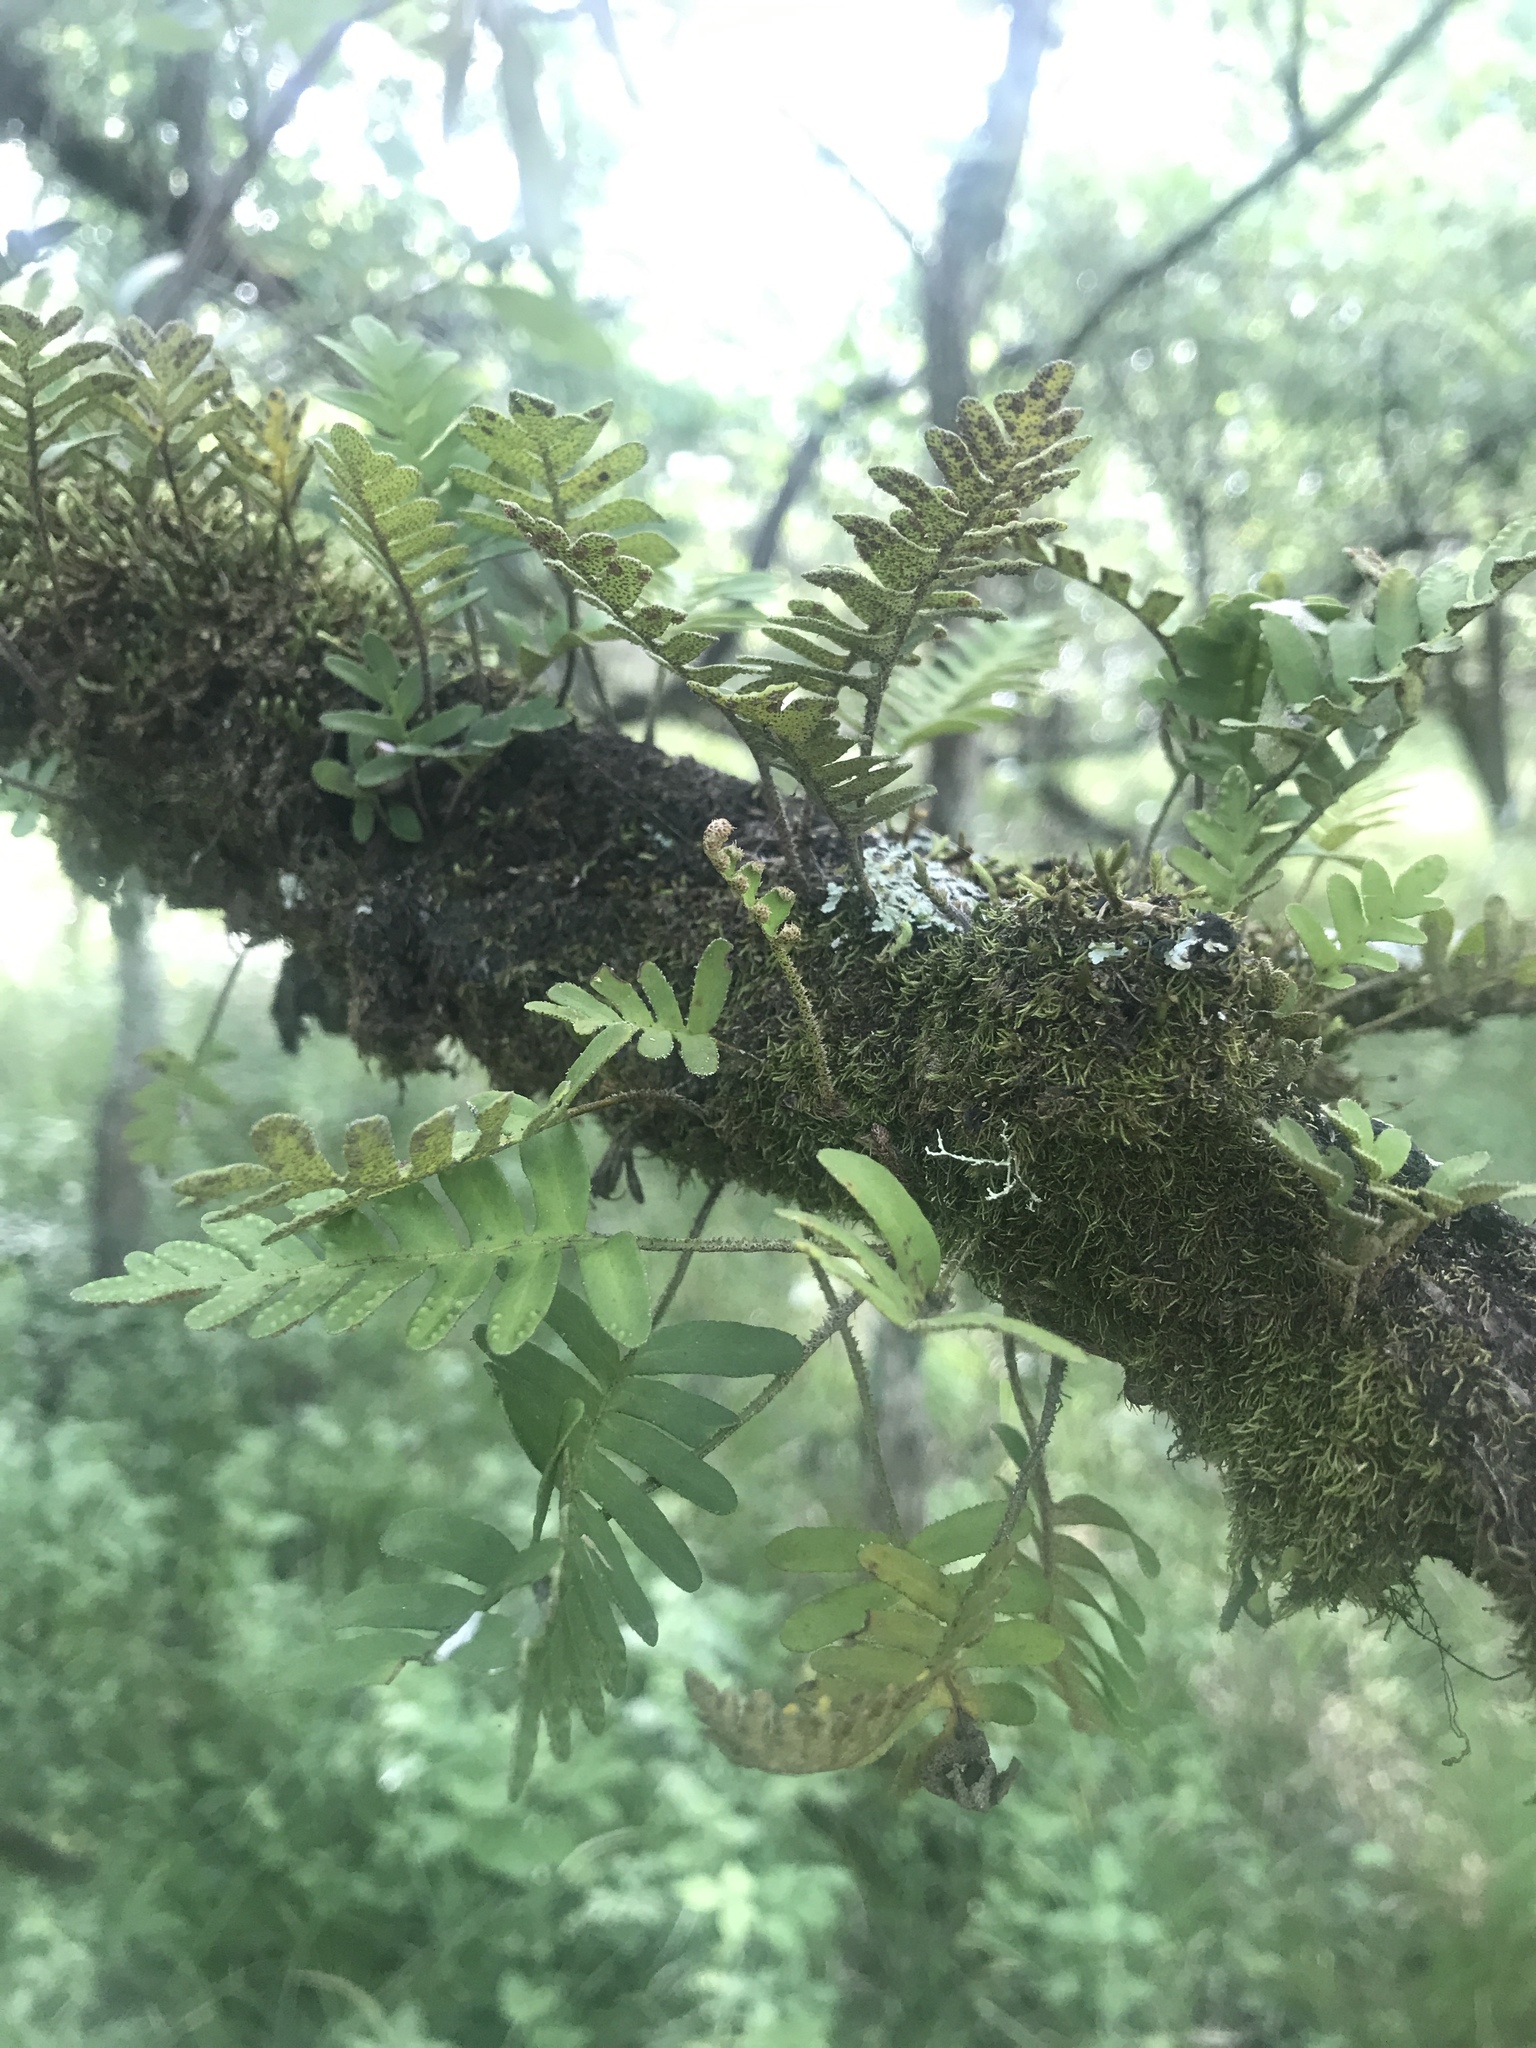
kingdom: Plantae
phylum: Tracheophyta
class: Polypodiopsida
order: Polypodiales
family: Polypodiaceae
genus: Pleopeltis
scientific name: Pleopeltis michauxiana
